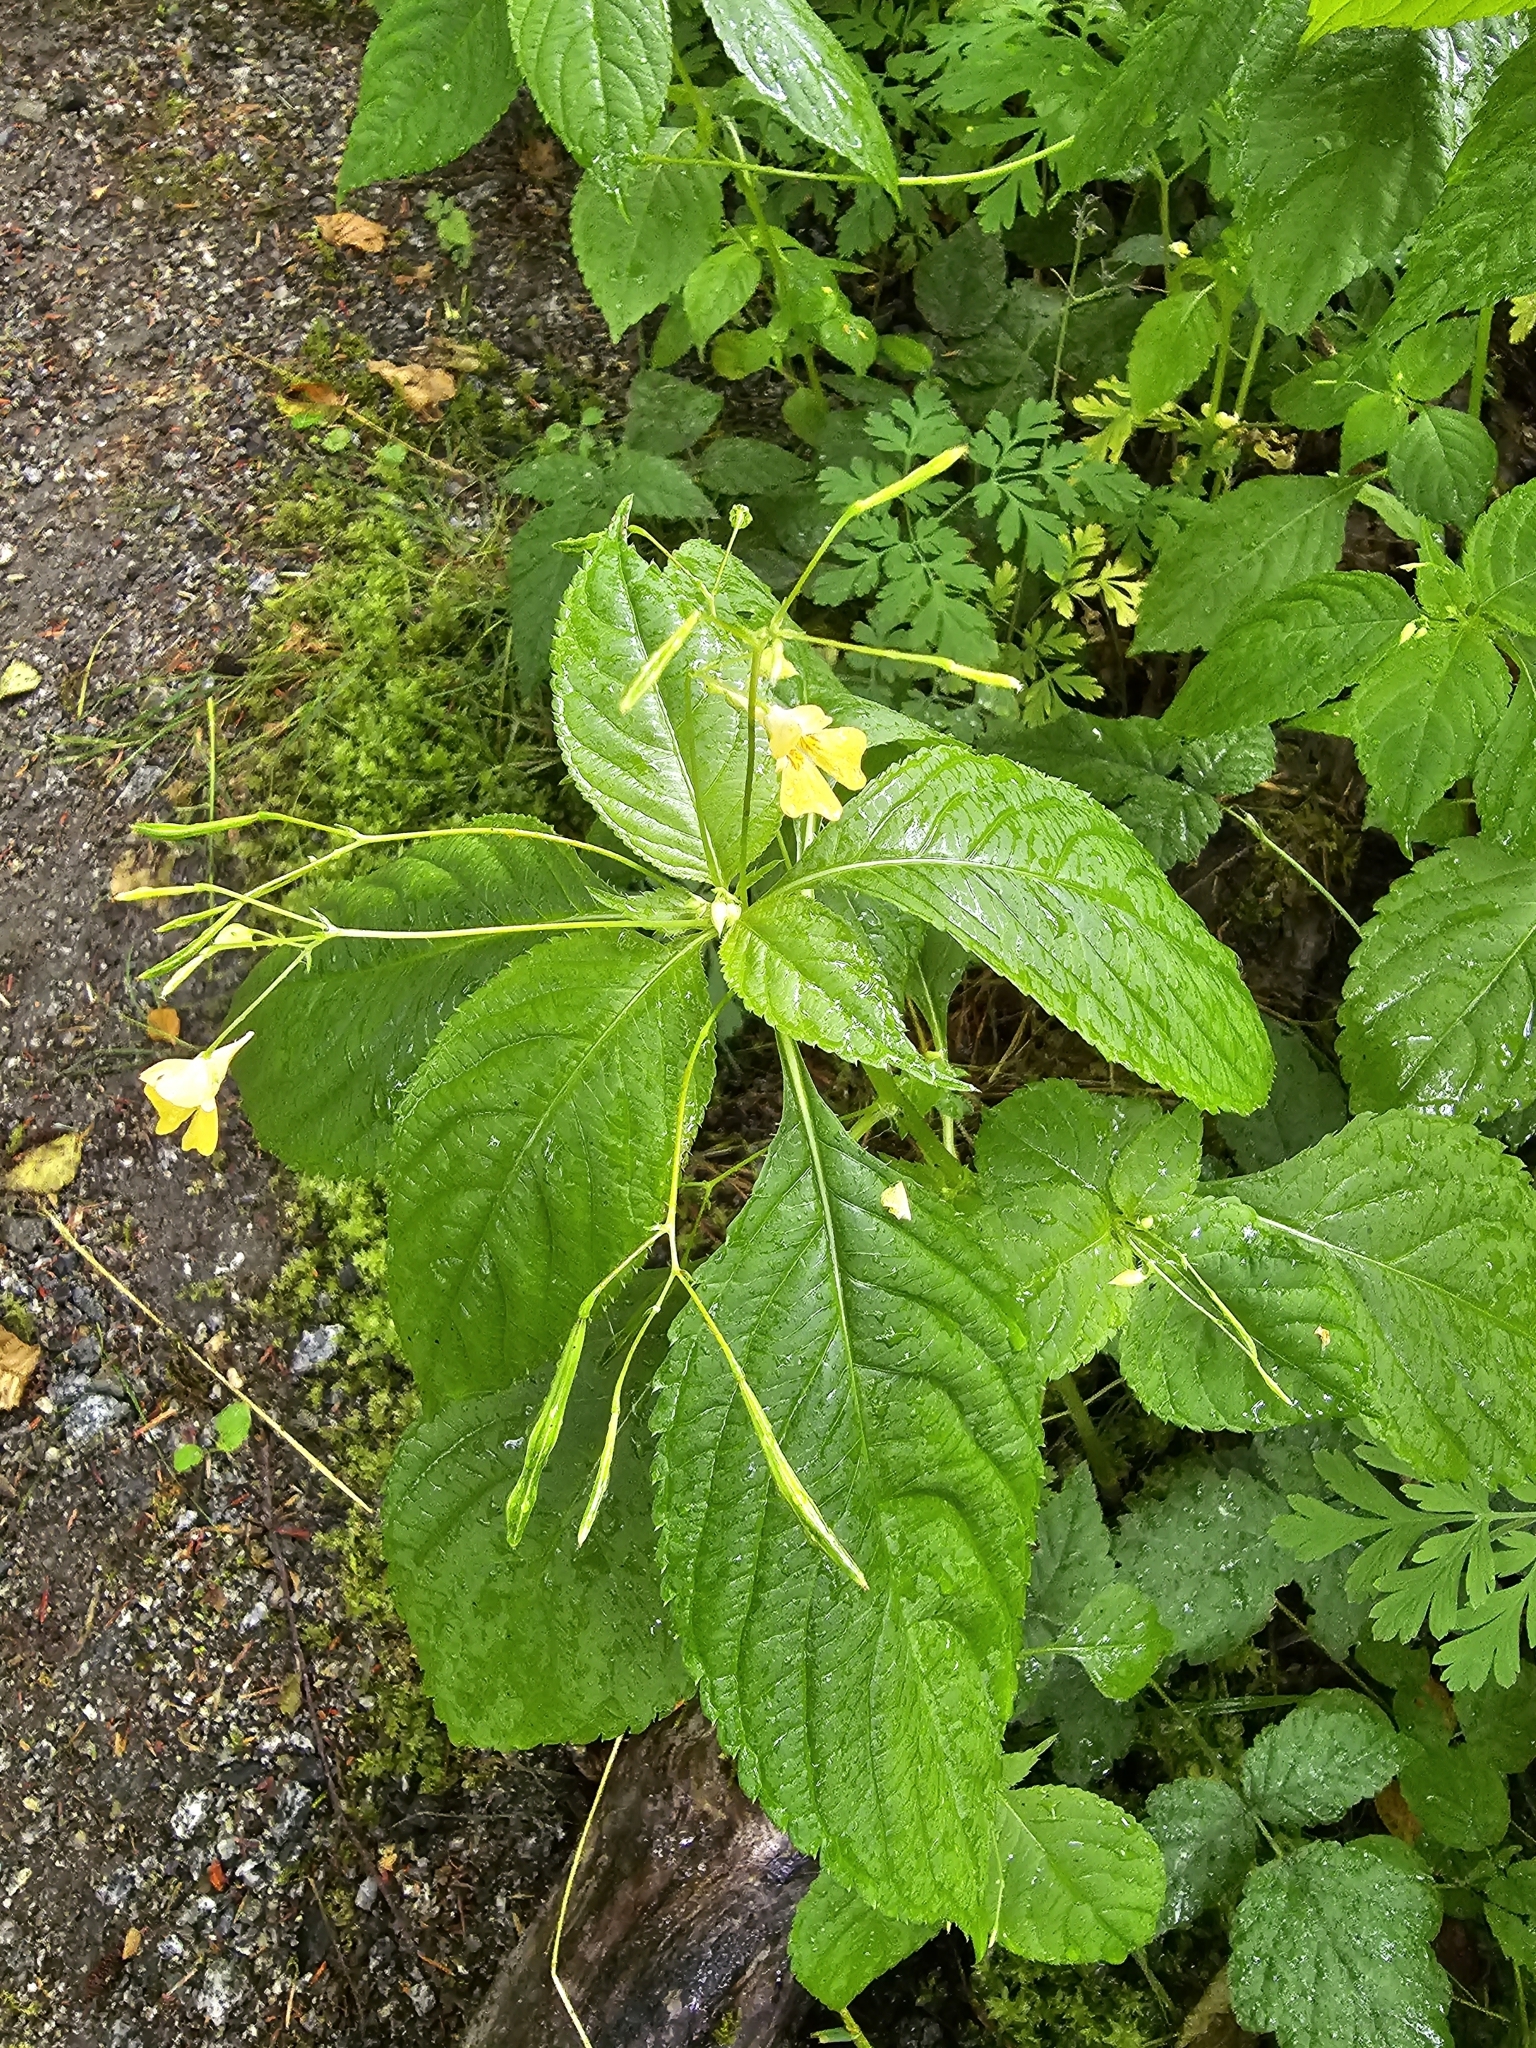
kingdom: Plantae
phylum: Tracheophyta
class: Magnoliopsida
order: Ericales
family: Balsaminaceae
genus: Impatiens
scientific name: Impatiens parviflora
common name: Small balsam
